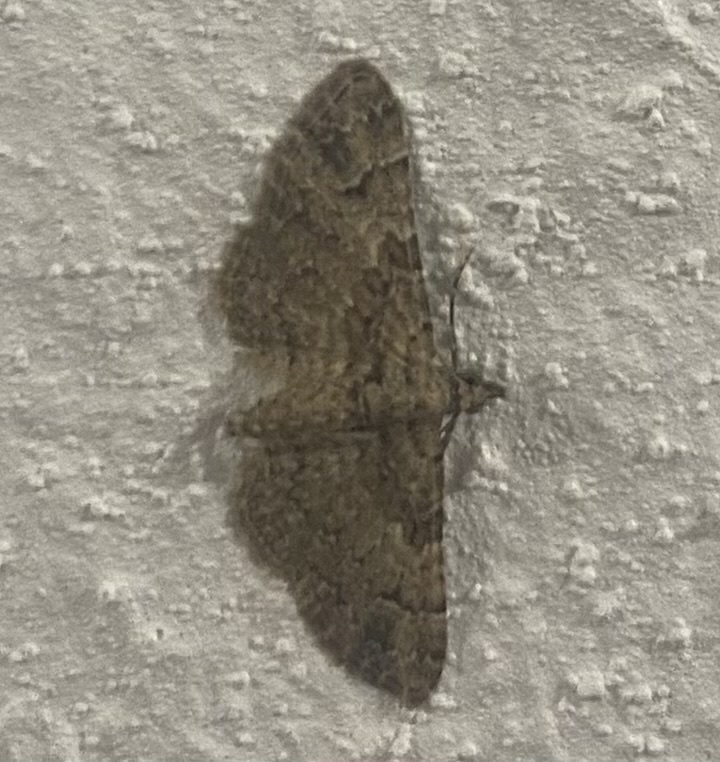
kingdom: Animalia
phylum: Arthropoda
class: Insecta
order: Lepidoptera
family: Geometridae
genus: Gymnoscelis
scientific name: Gymnoscelis rufifasciata
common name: Double-striped pug
